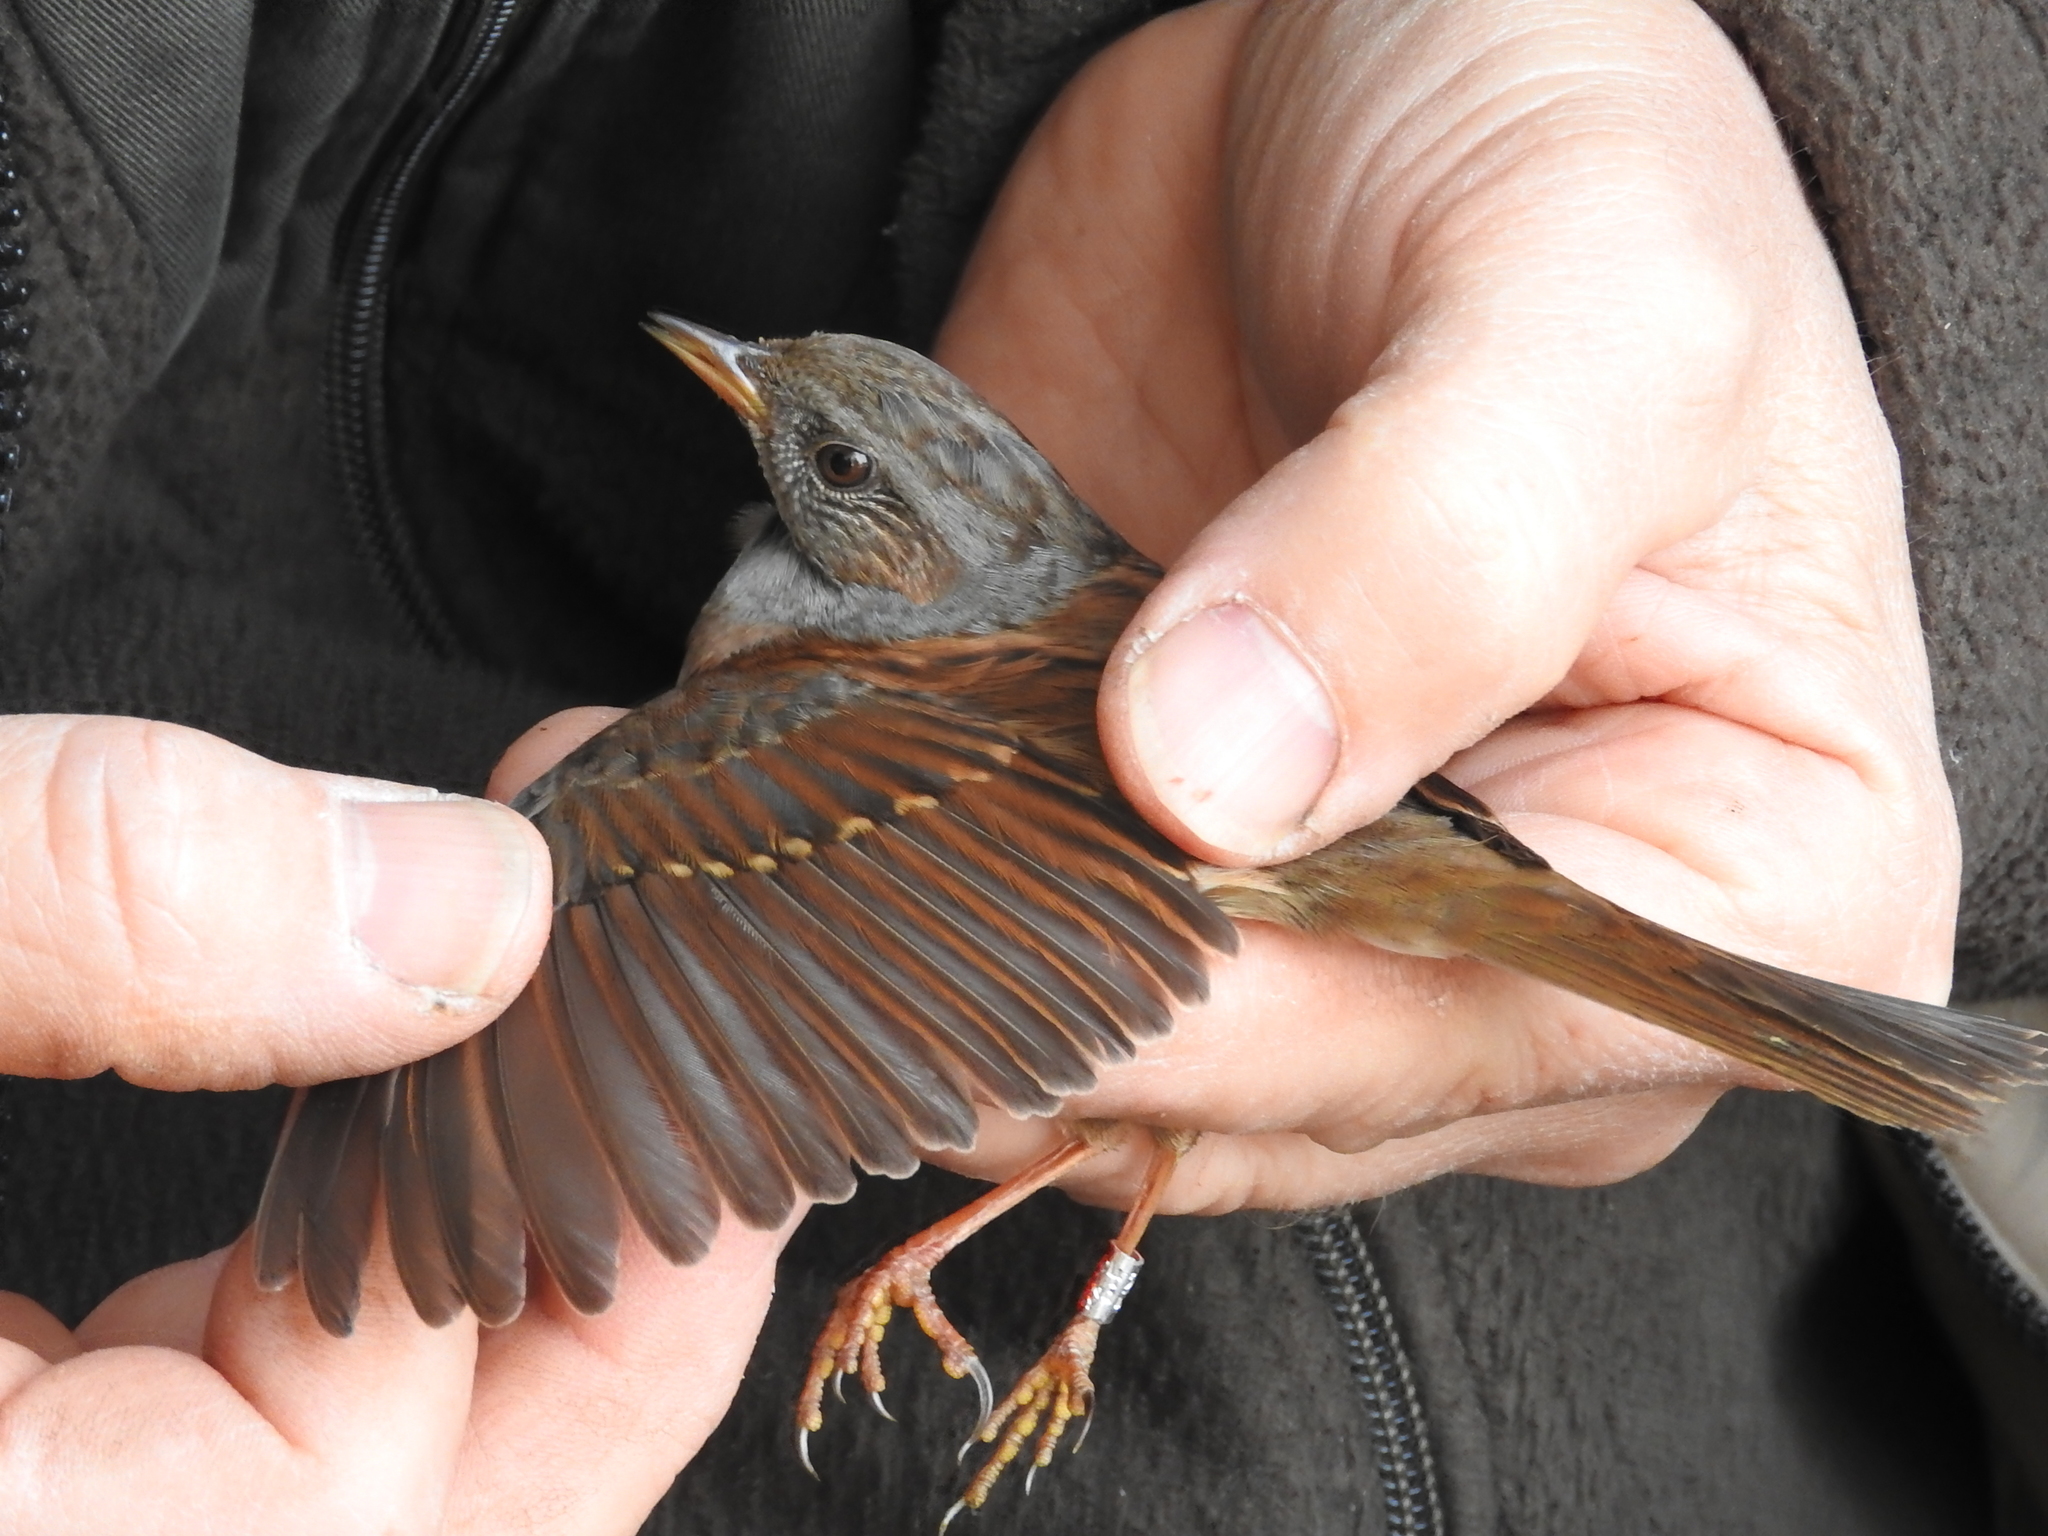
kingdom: Animalia
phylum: Chordata
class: Aves
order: Passeriformes
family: Prunellidae
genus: Prunella
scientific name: Prunella modularis
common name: Dunnock
